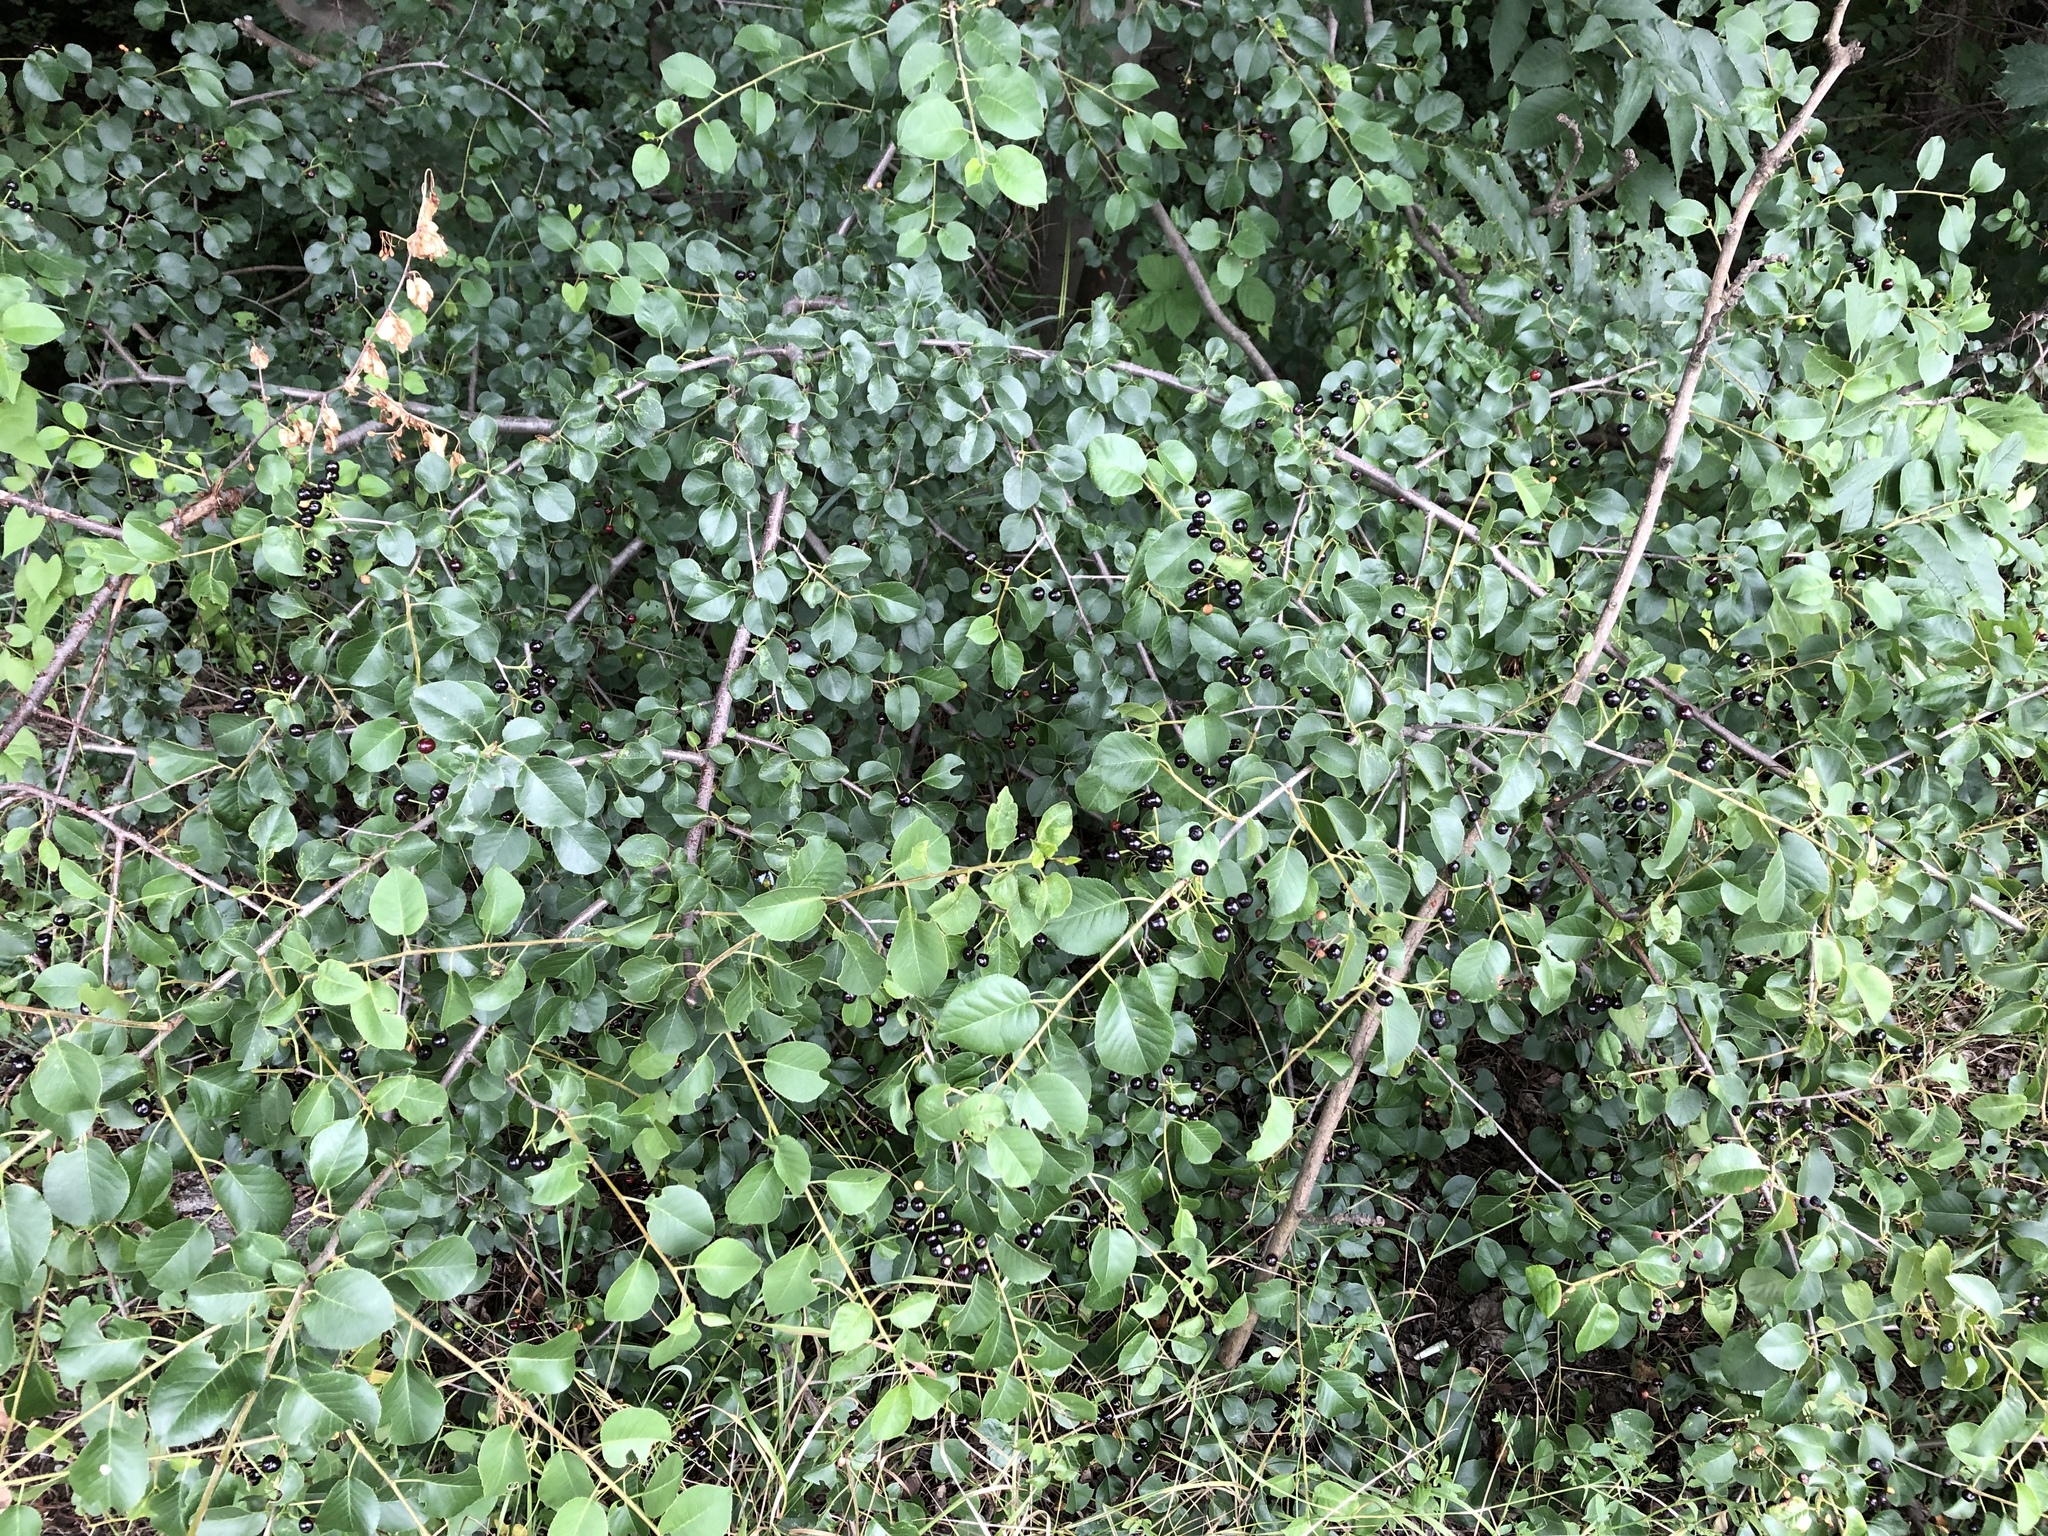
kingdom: Plantae
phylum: Tracheophyta
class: Magnoliopsida
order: Rosales
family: Rosaceae
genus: Prunus
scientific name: Prunus mahaleb
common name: Mahaleb cherry
